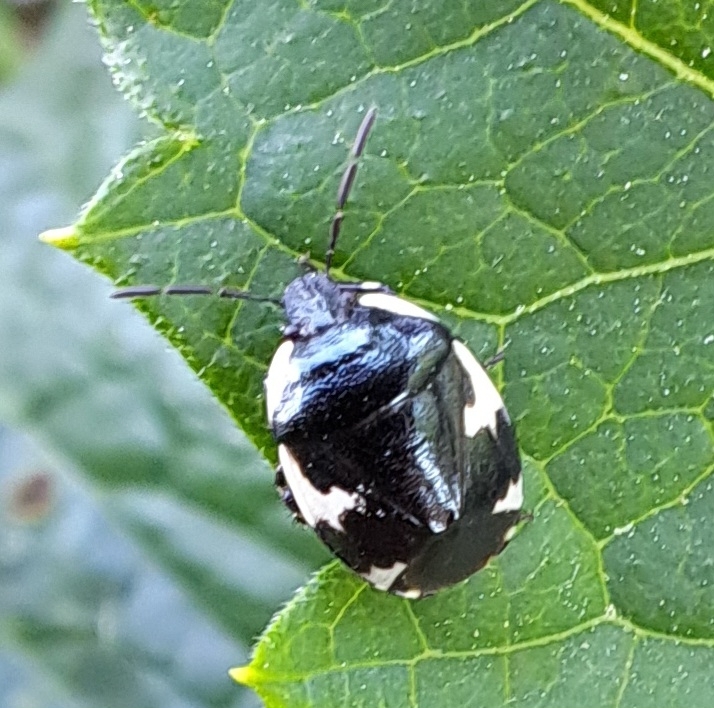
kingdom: Animalia
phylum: Arthropoda
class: Insecta
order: Hemiptera
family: Cydnidae
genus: Tritomegas
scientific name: Tritomegas sexmaculatus
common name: Rambur's pied shieldbug
